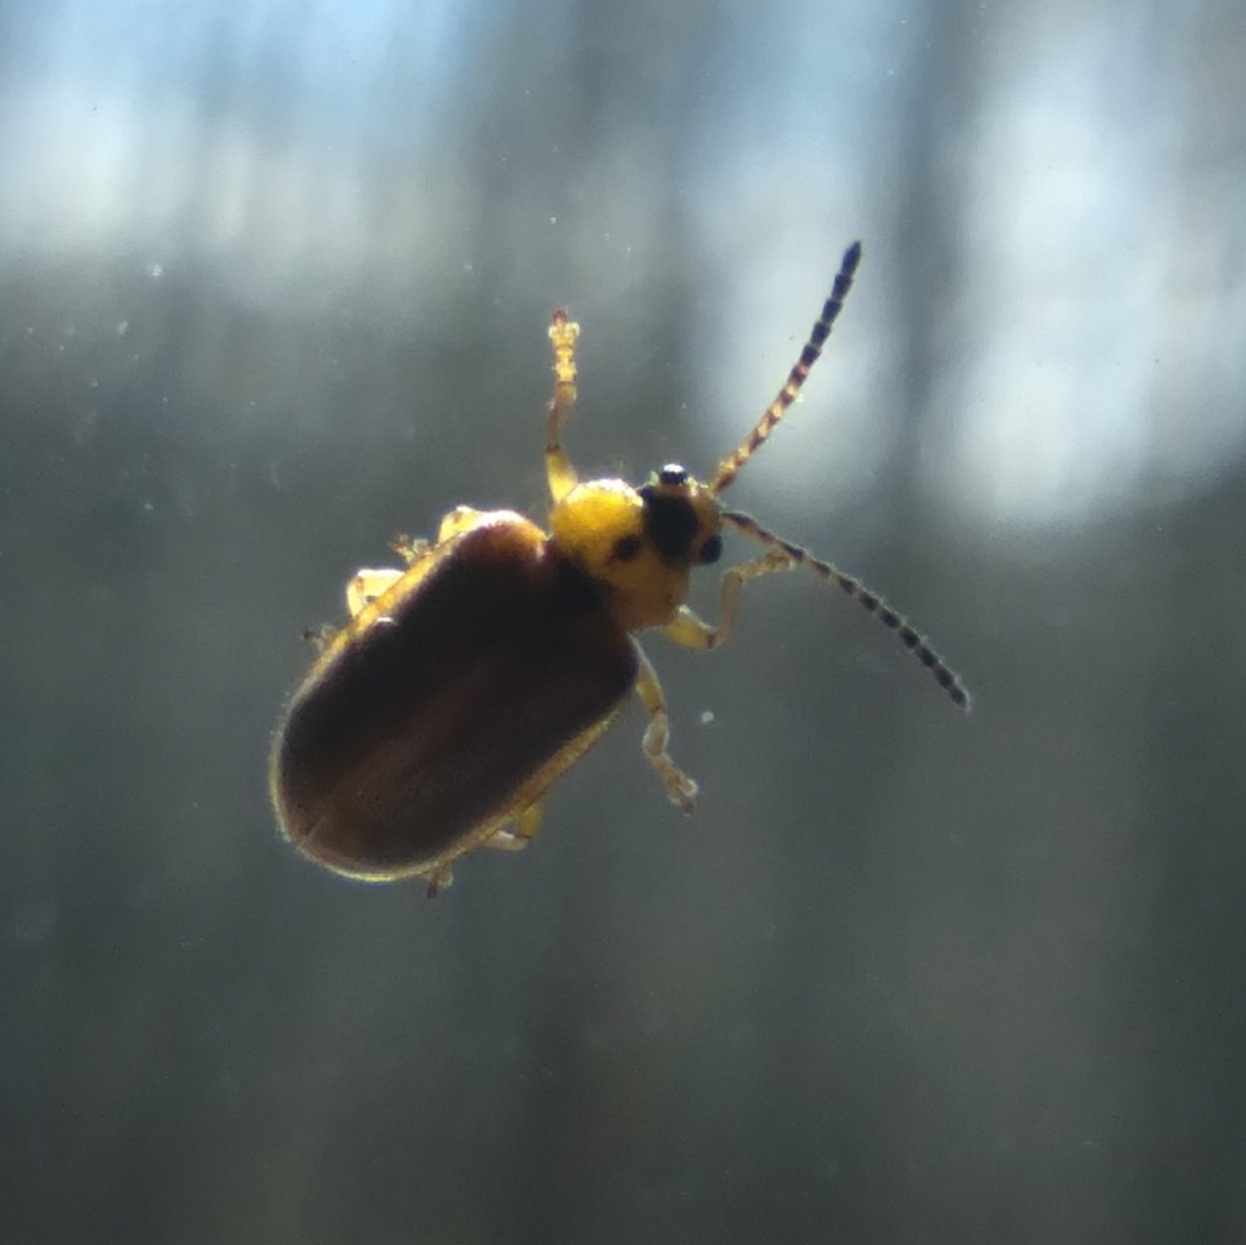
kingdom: Animalia
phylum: Arthropoda
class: Insecta
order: Coleoptera
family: Chrysomelidae
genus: Galerucella
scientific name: Galerucella lineola
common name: Brown willow beetle
